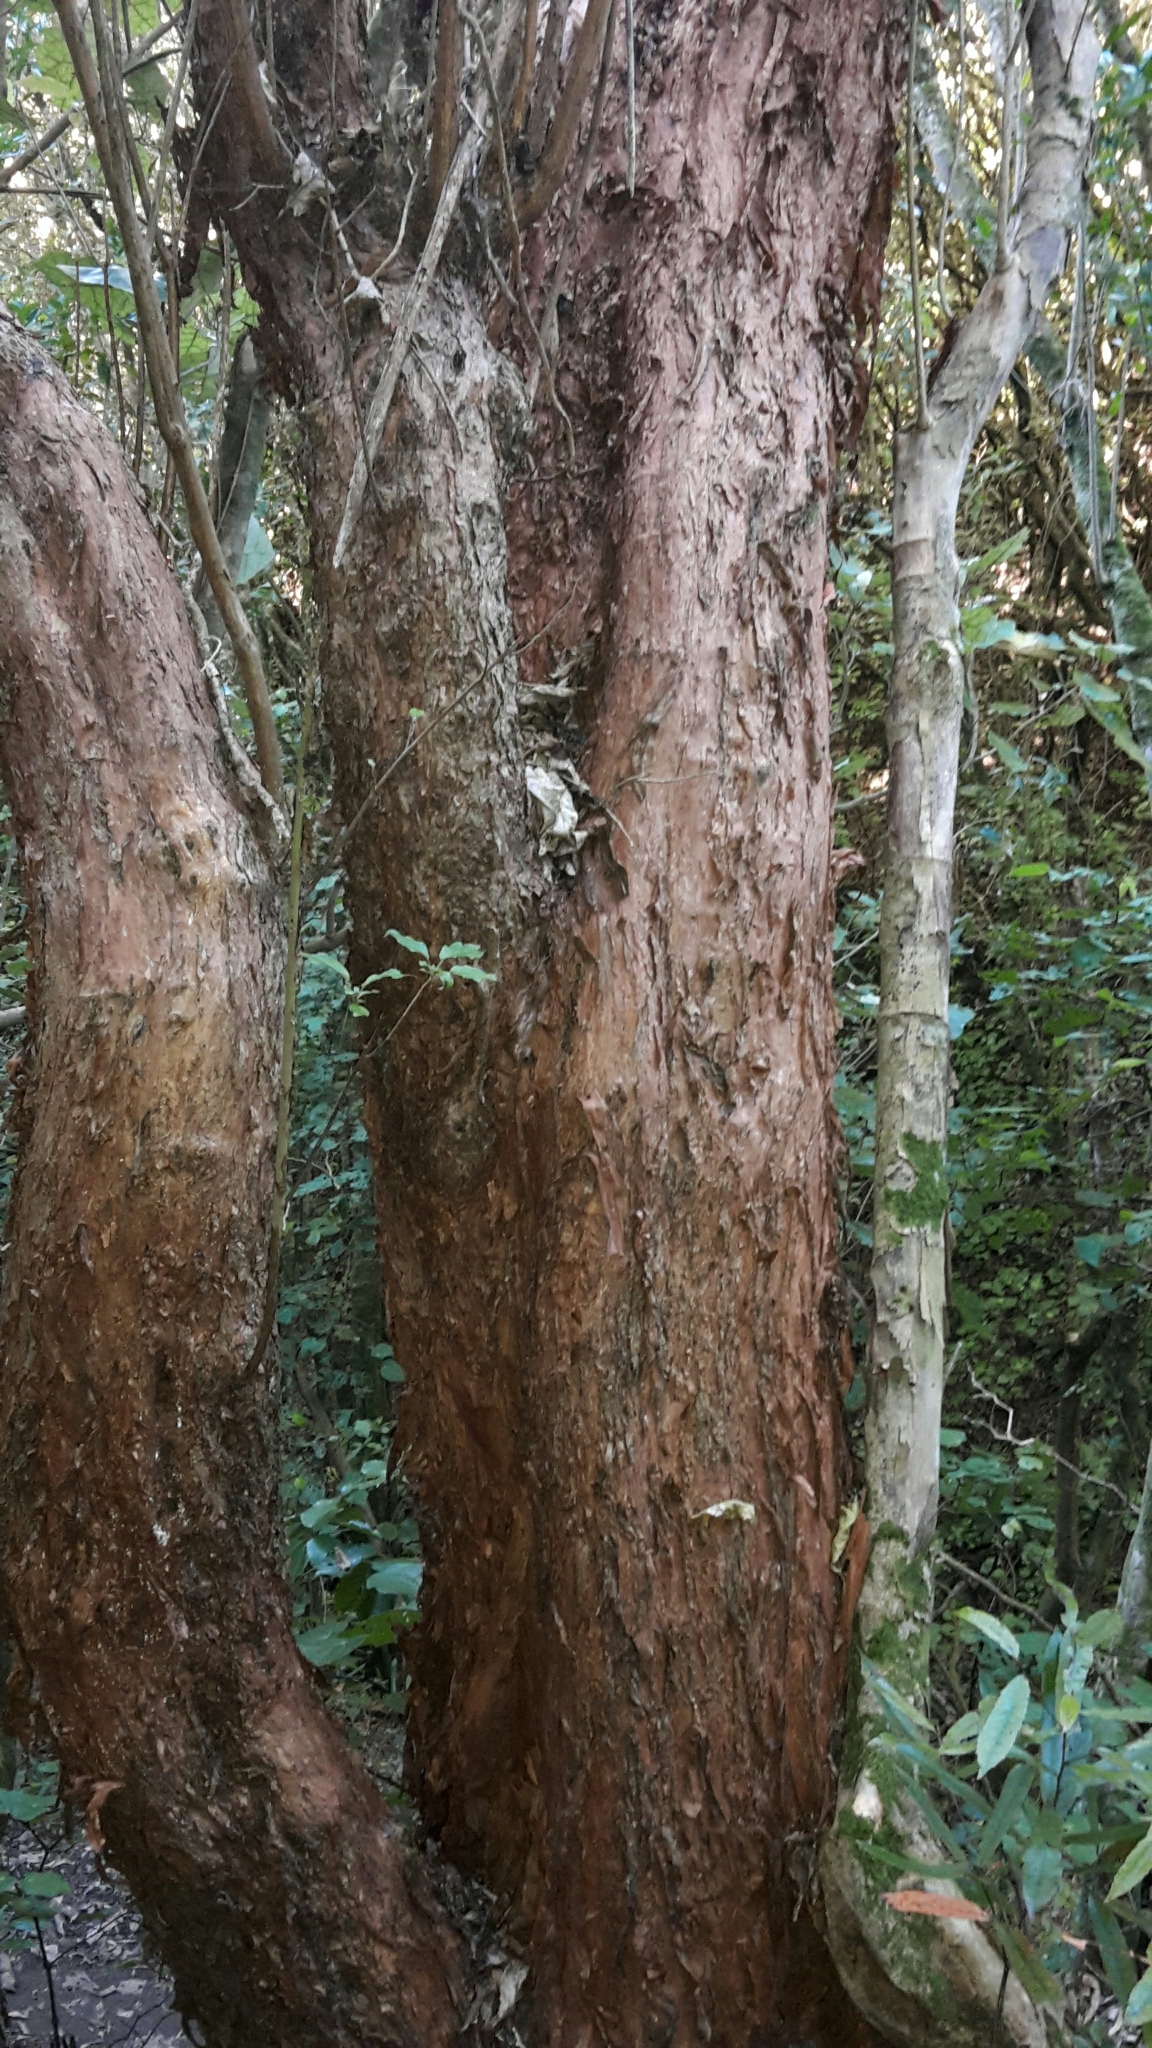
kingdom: Plantae
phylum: Tracheophyta
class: Magnoliopsida
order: Myrtales
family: Onagraceae
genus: Fuchsia
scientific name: Fuchsia excorticata
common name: Tree fuchsia
